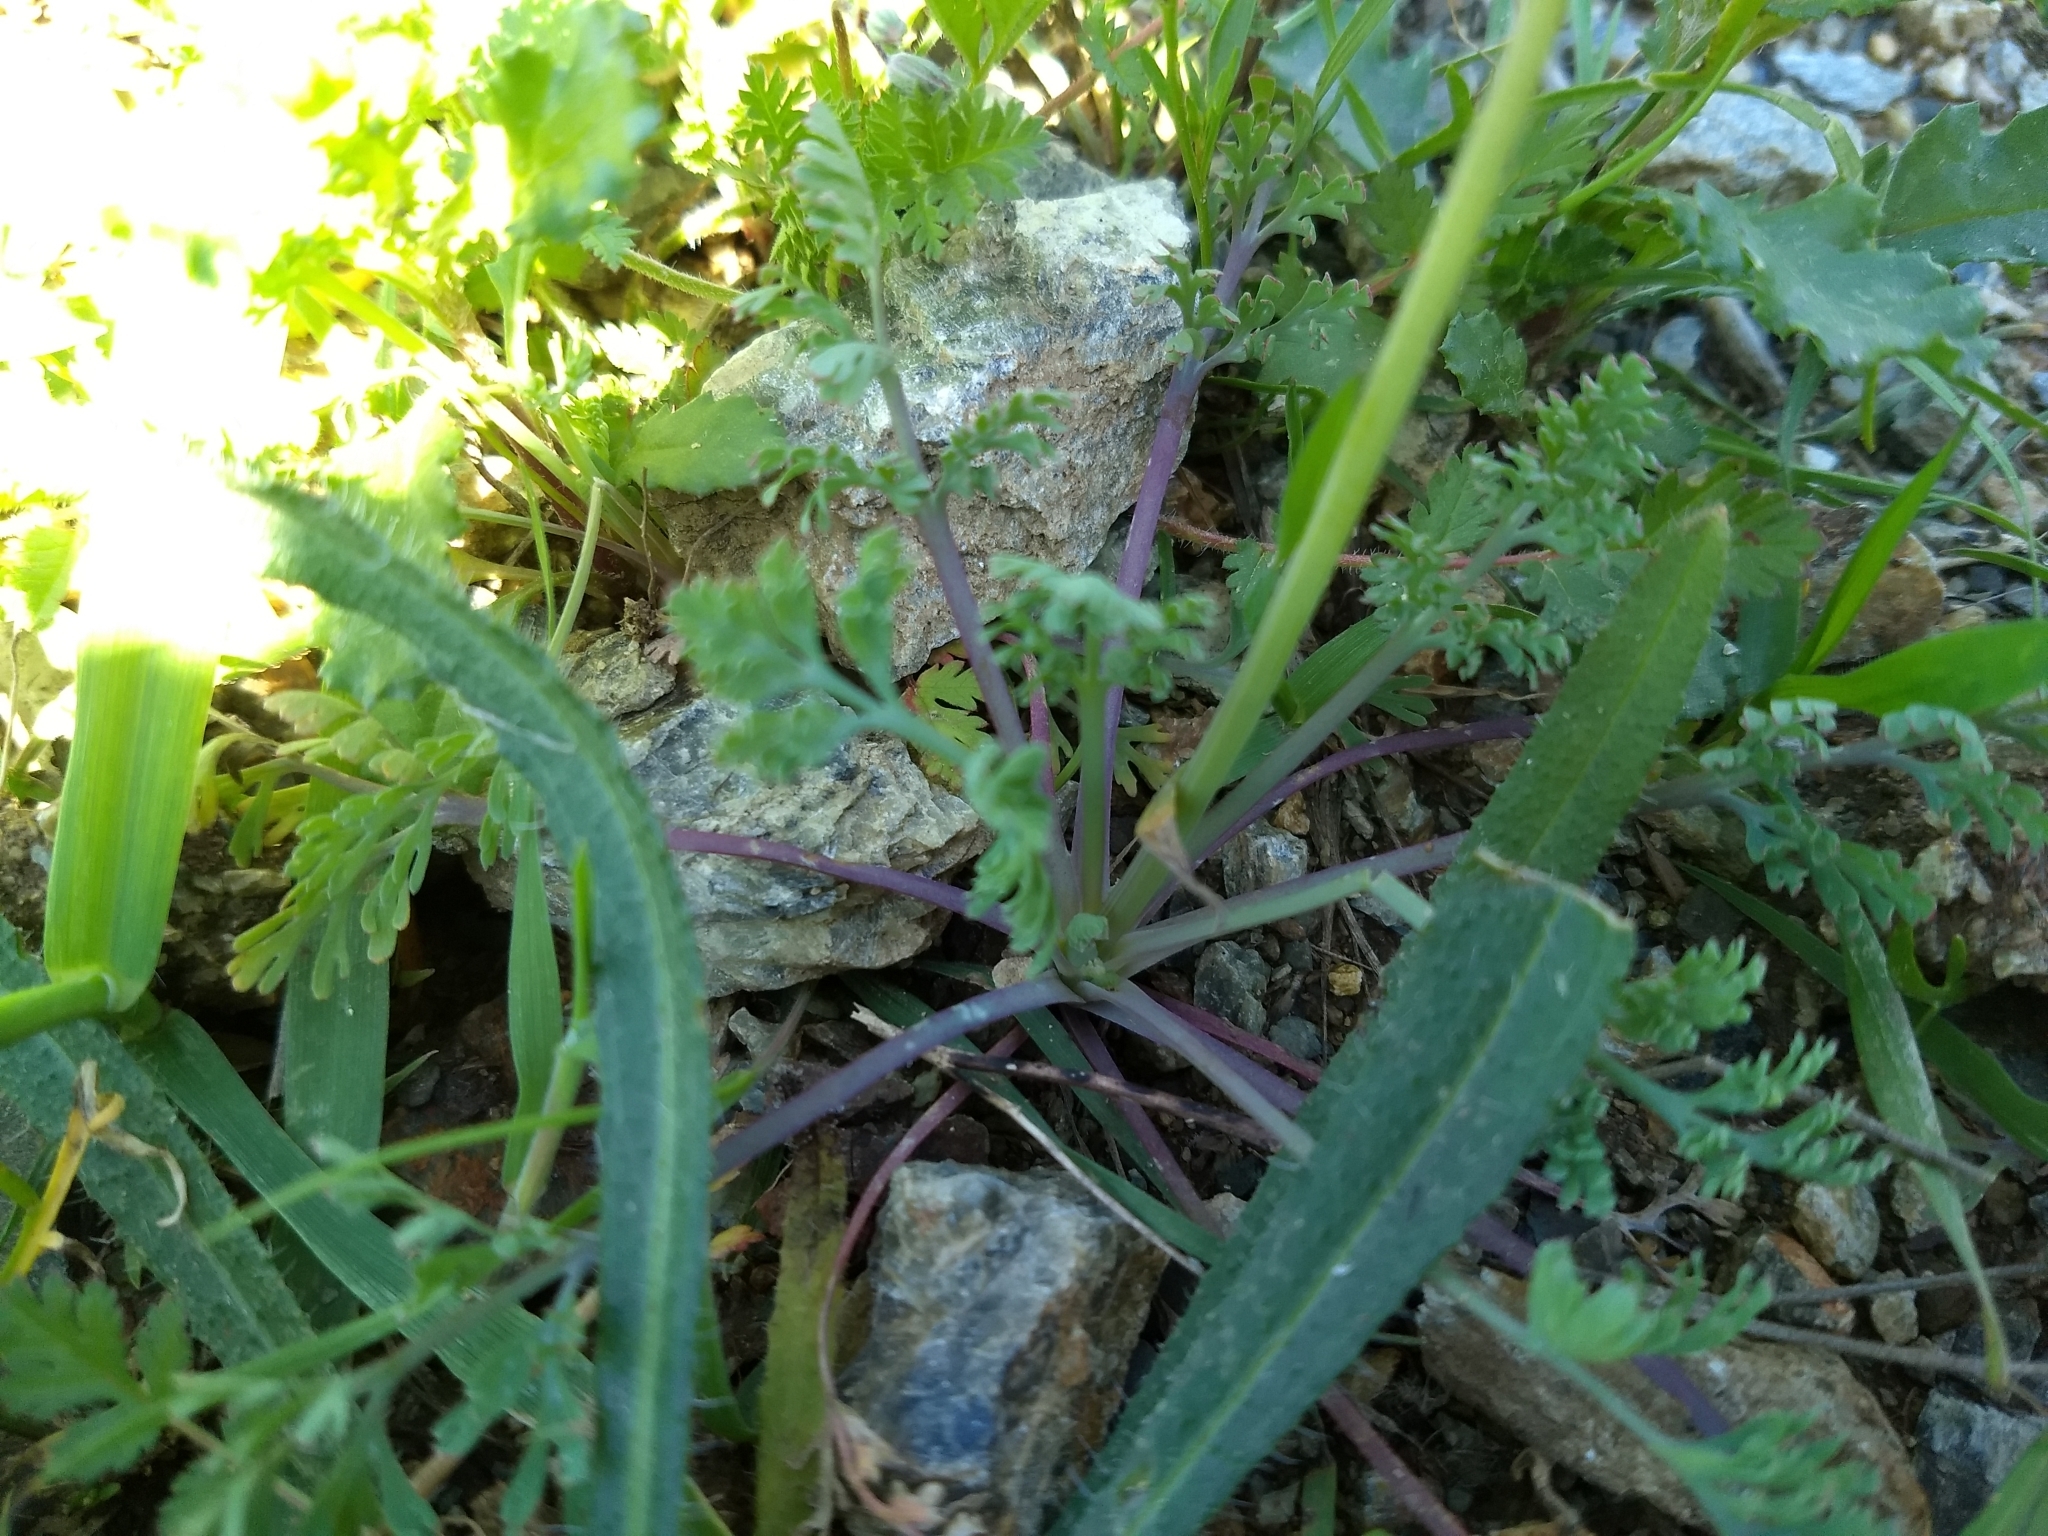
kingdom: Plantae
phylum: Tracheophyta
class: Magnoliopsida
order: Ranunculales
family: Papaveraceae
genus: Eschscholzia
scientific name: Eschscholzia californica
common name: California poppy
